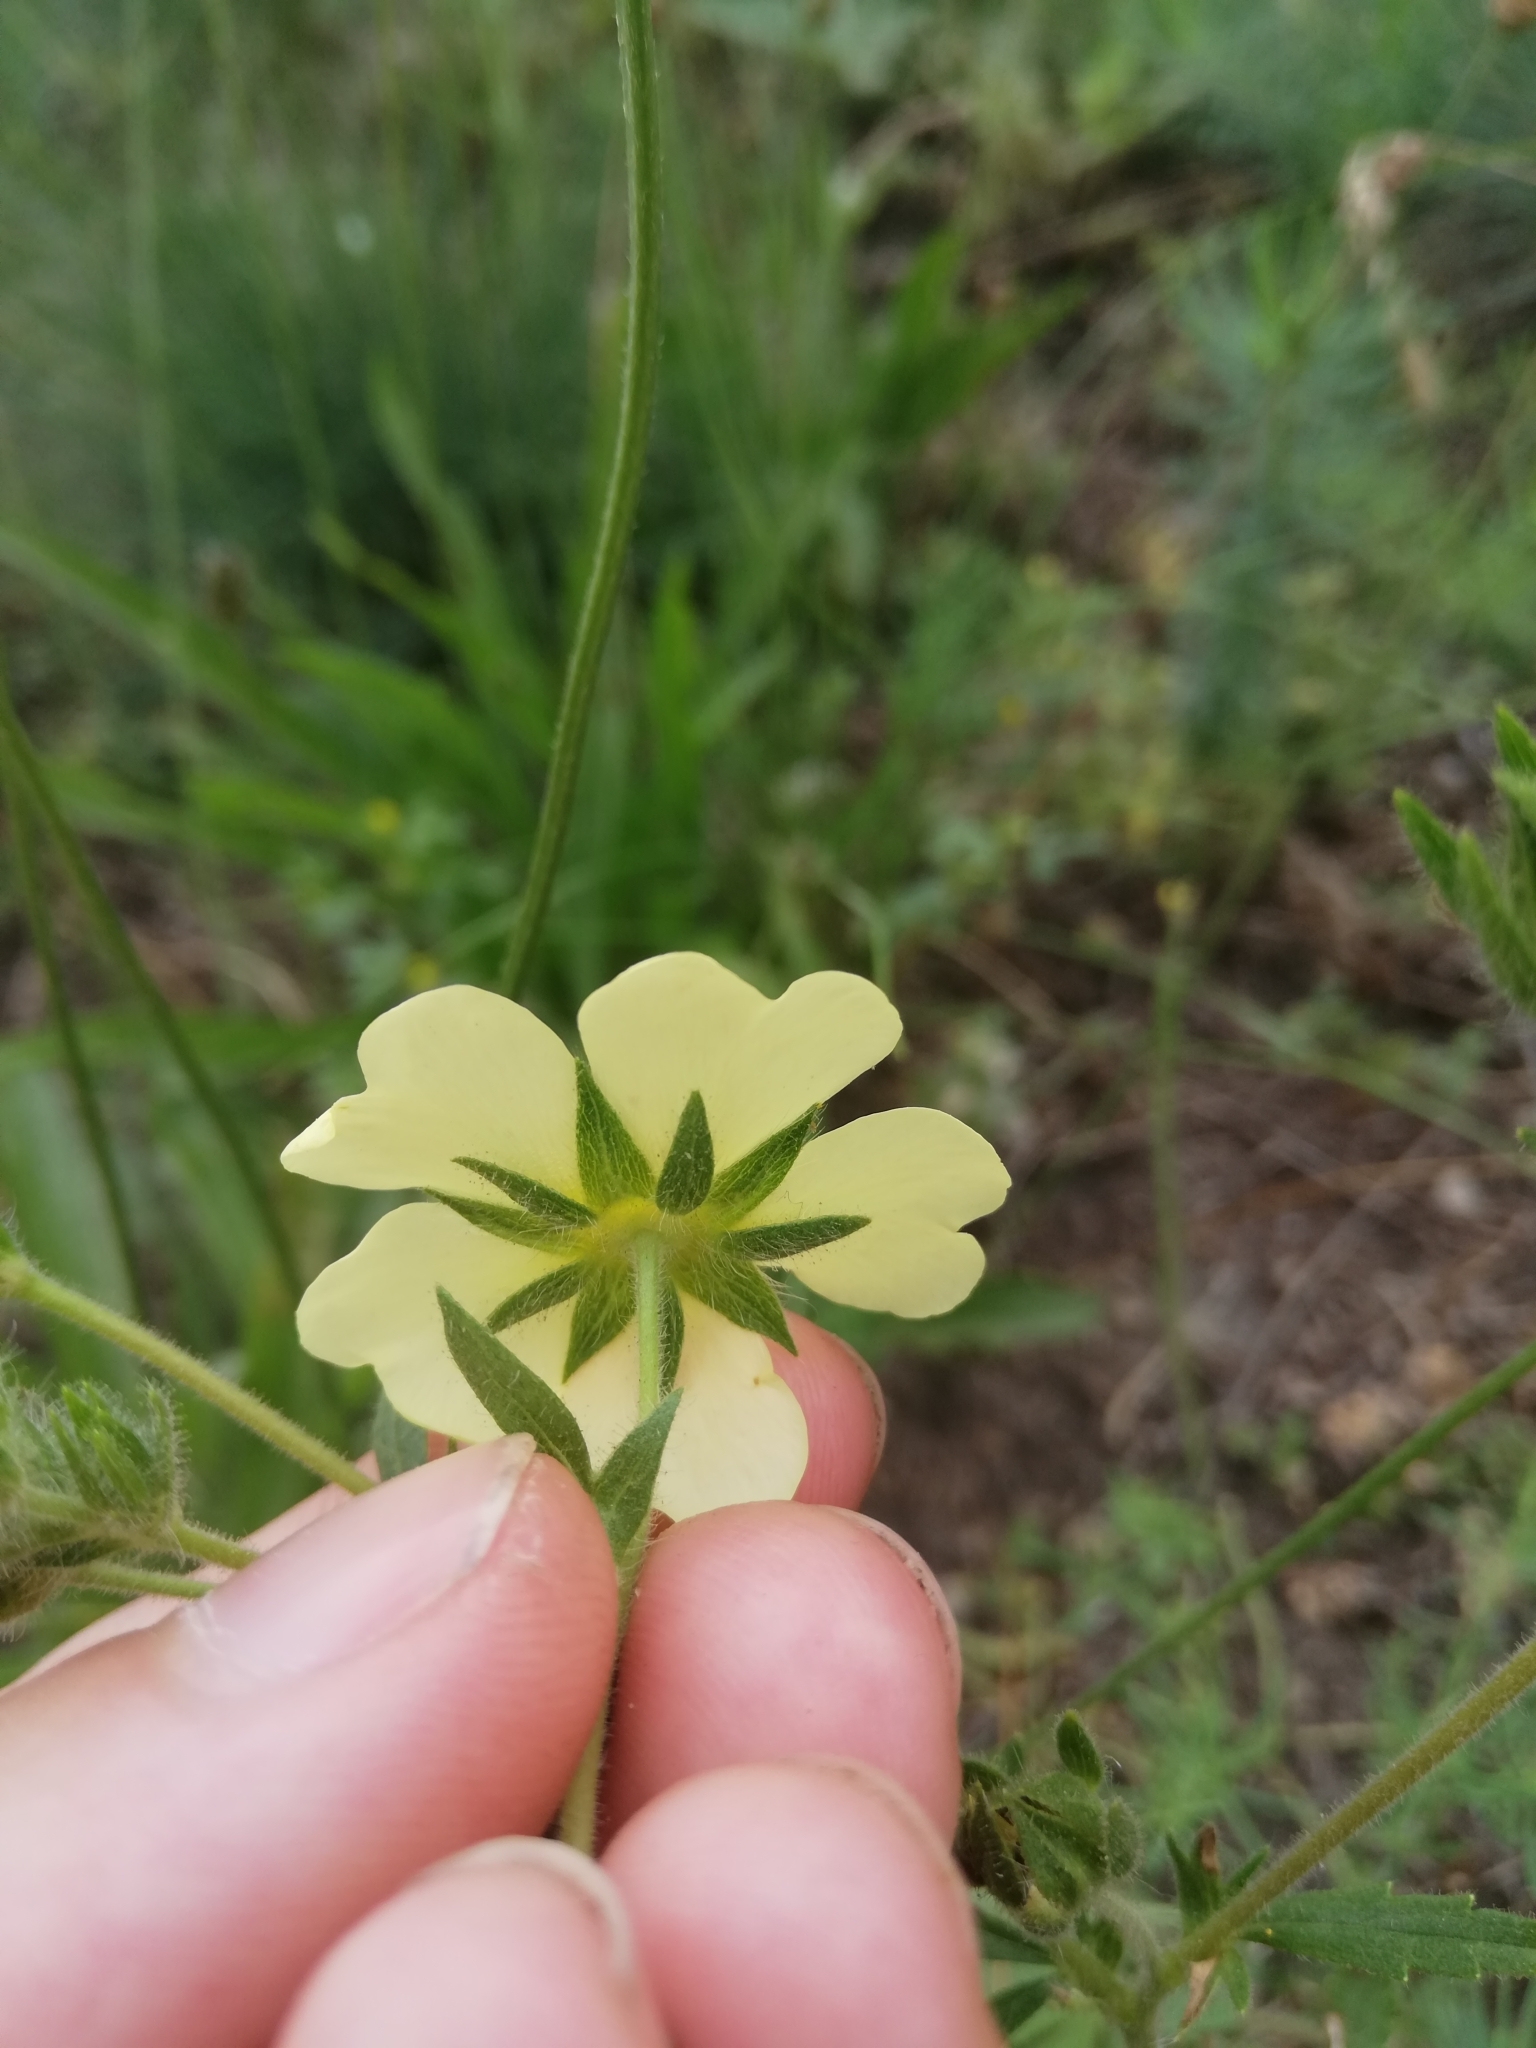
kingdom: Plantae
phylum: Tracheophyta
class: Magnoliopsida
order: Rosales
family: Rosaceae
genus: Potentilla
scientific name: Potentilla recta
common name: Sulphur cinquefoil
